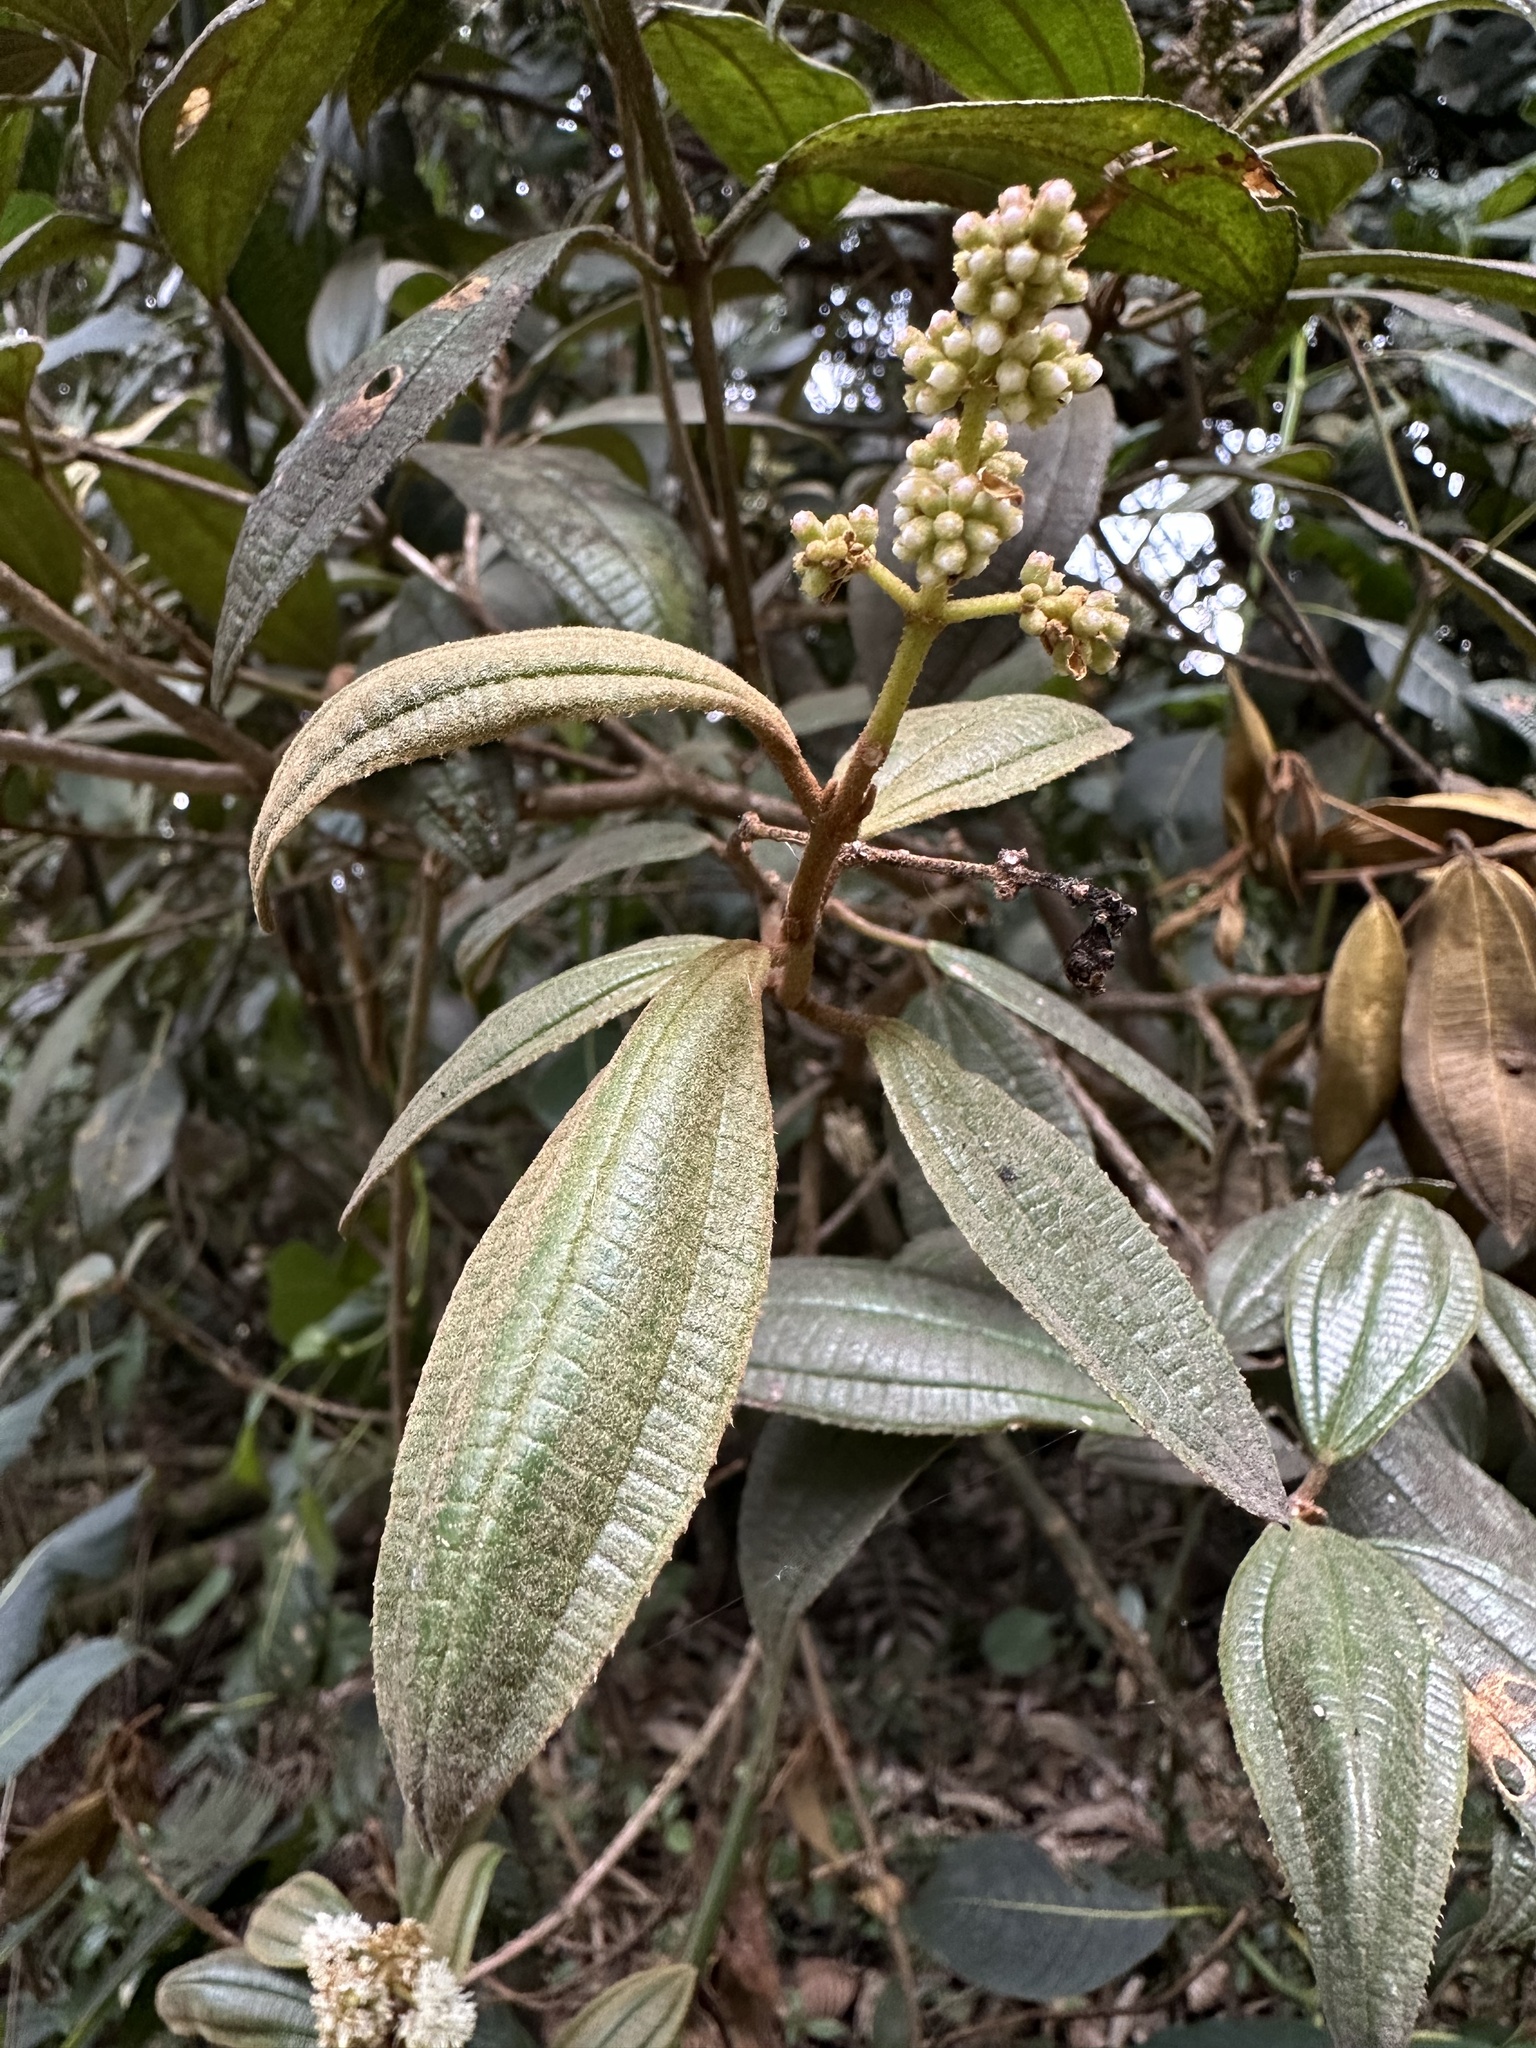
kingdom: Plantae
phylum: Tracheophyta
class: Magnoliopsida
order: Myrtales
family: Melastomataceae
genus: Miconia
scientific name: Miconia cataractae
